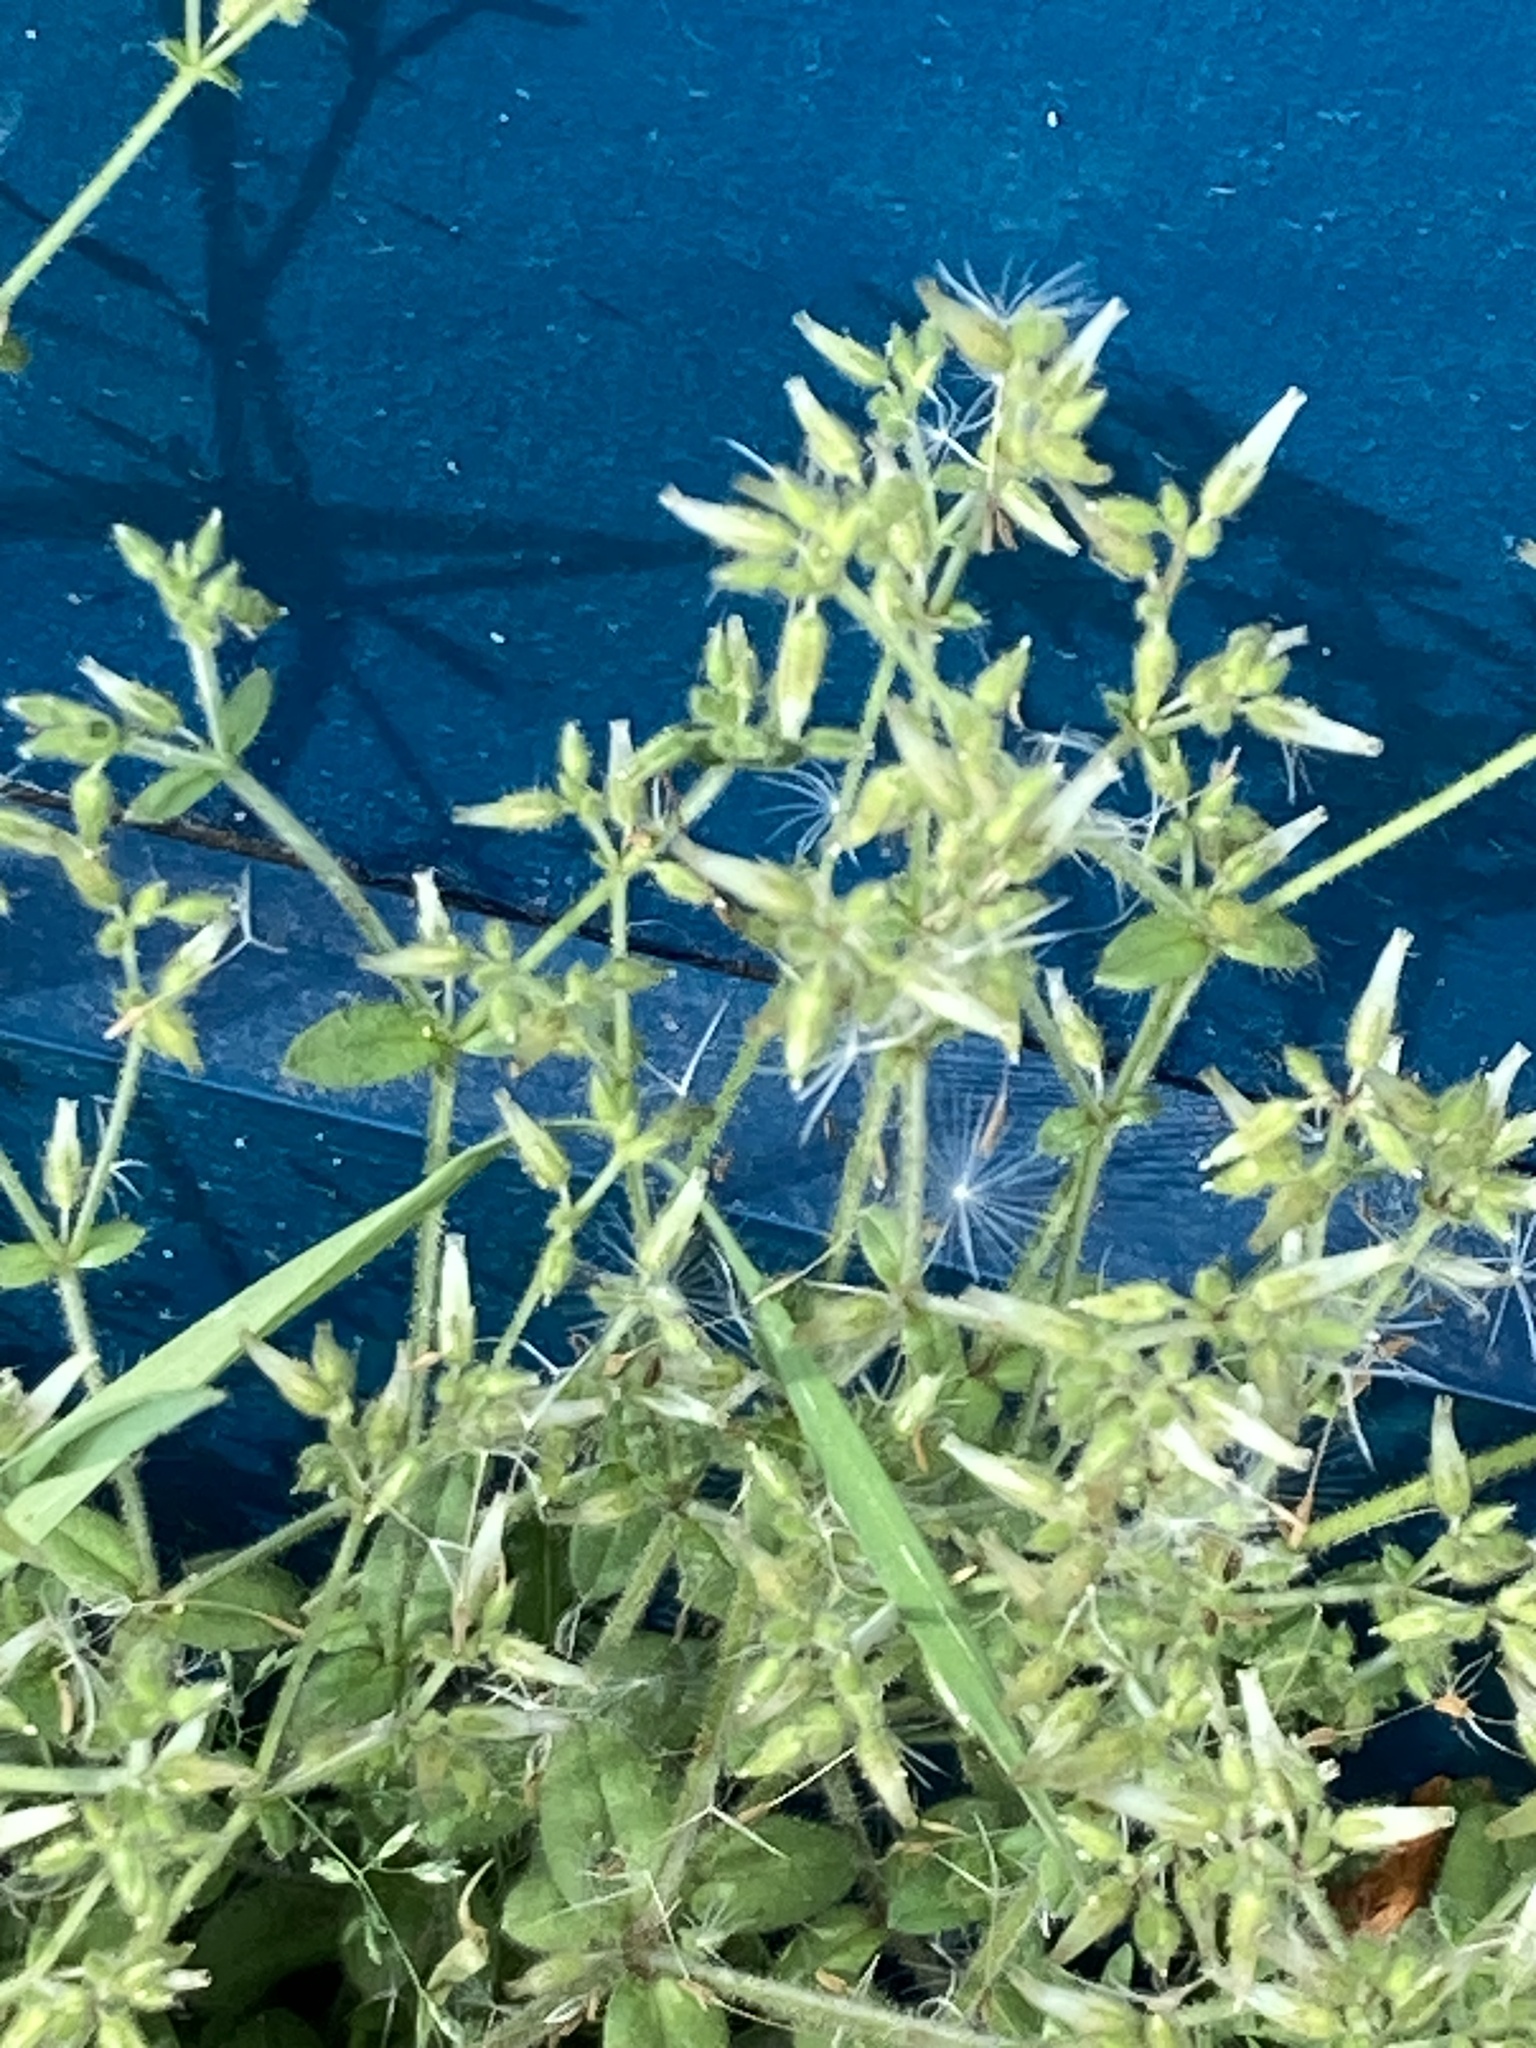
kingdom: Plantae
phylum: Tracheophyta
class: Magnoliopsida
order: Caryophyllales
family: Caryophyllaceae
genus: Cerastium
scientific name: Cerastium glomeratum
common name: Sticky chickweed
